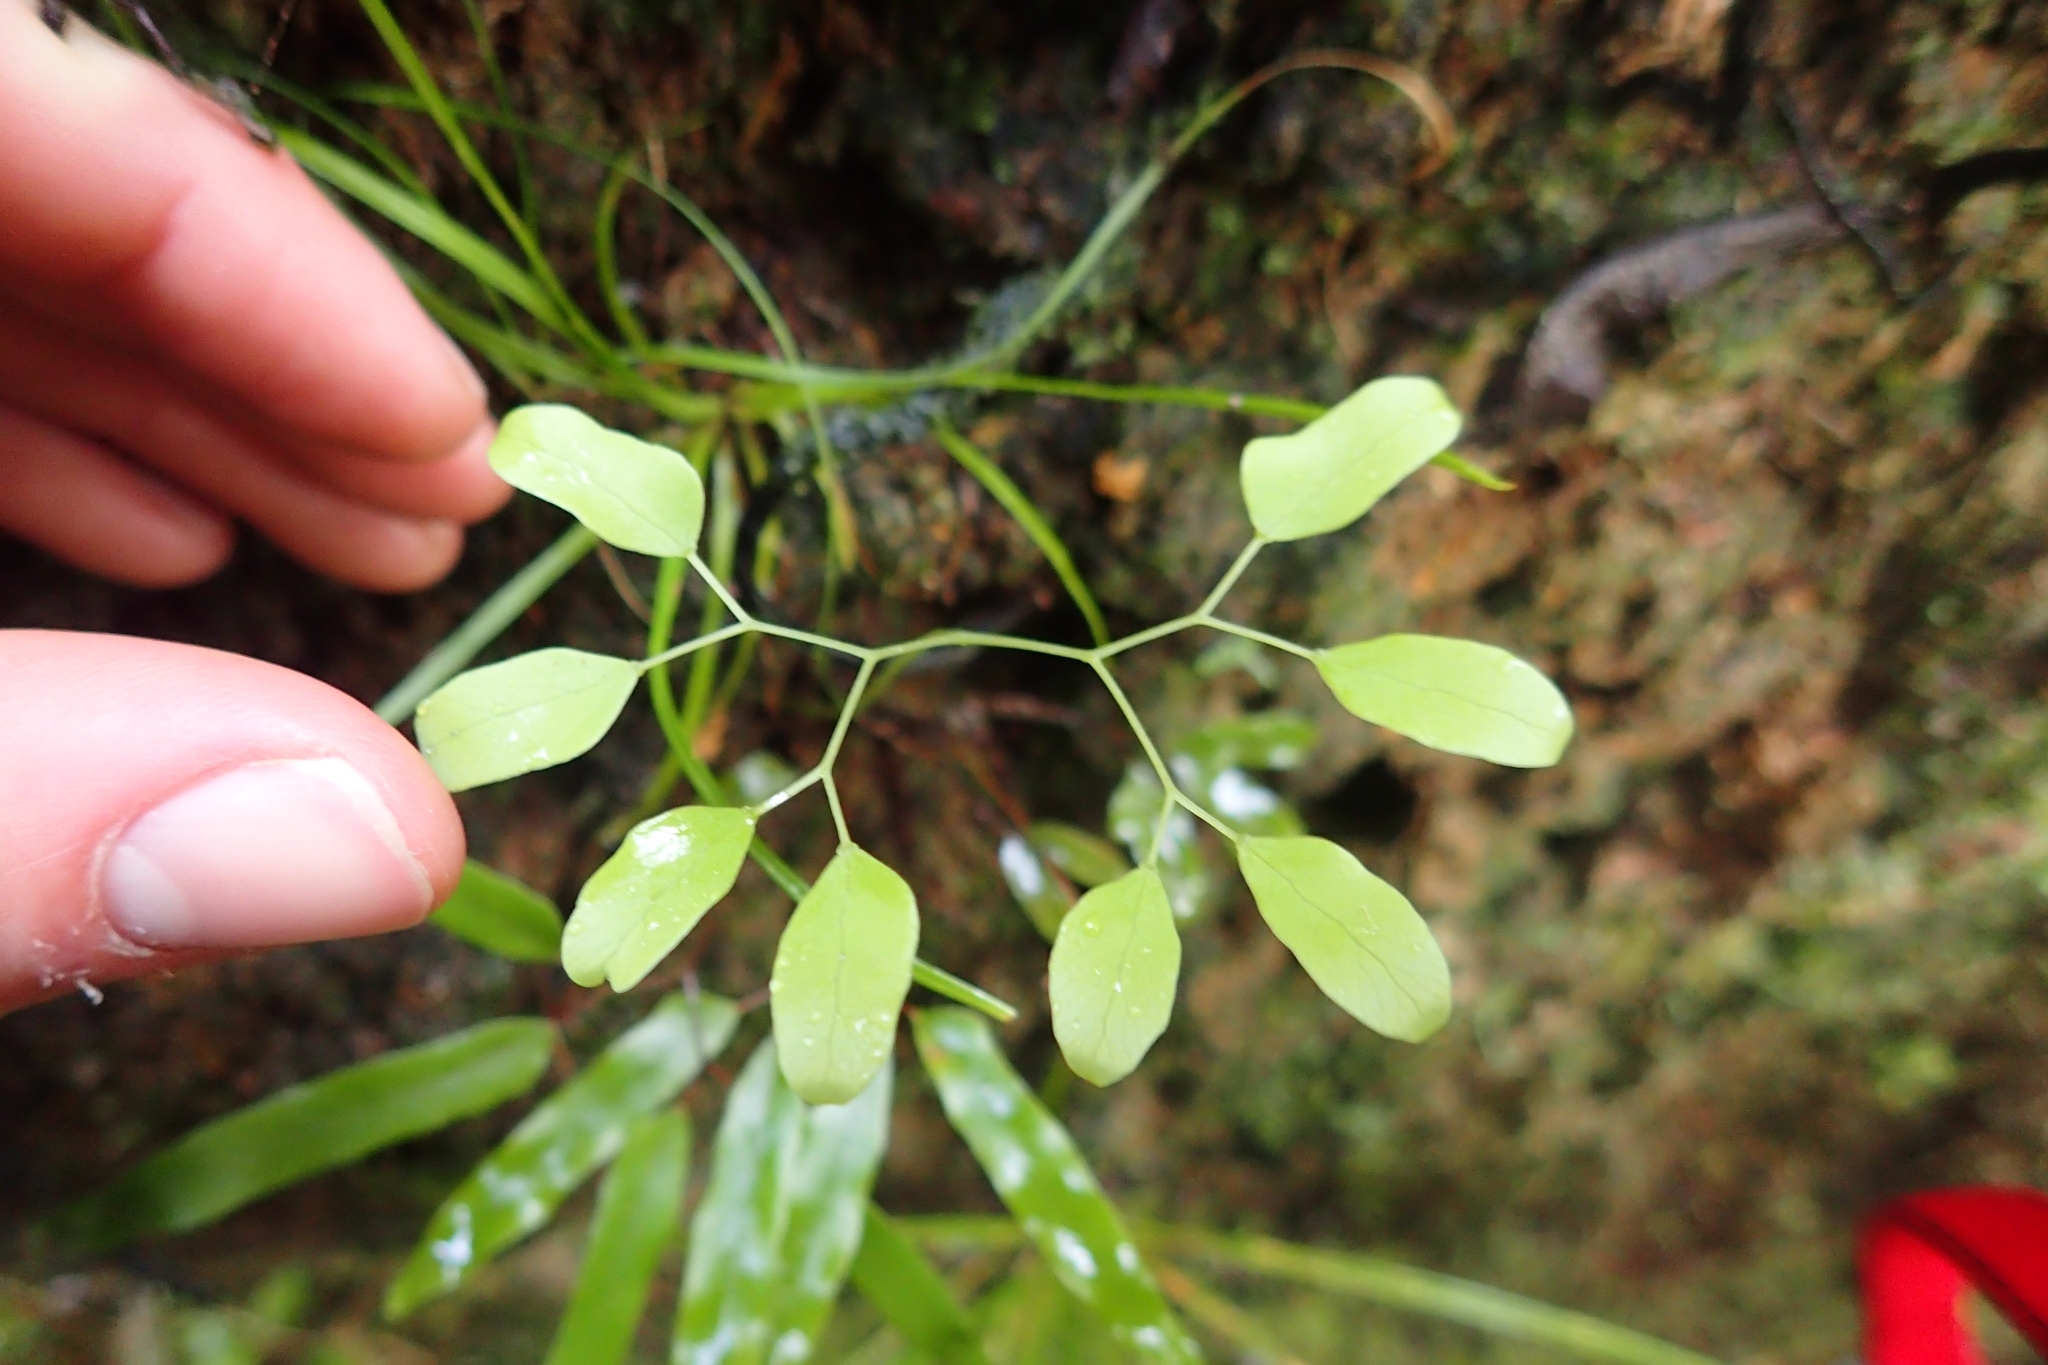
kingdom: Plantae
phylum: Tracheophyta
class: Polypodiopsida
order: Schizaeales
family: Lygodiaceae
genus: Lygodium
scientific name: Lygodium articulatum
